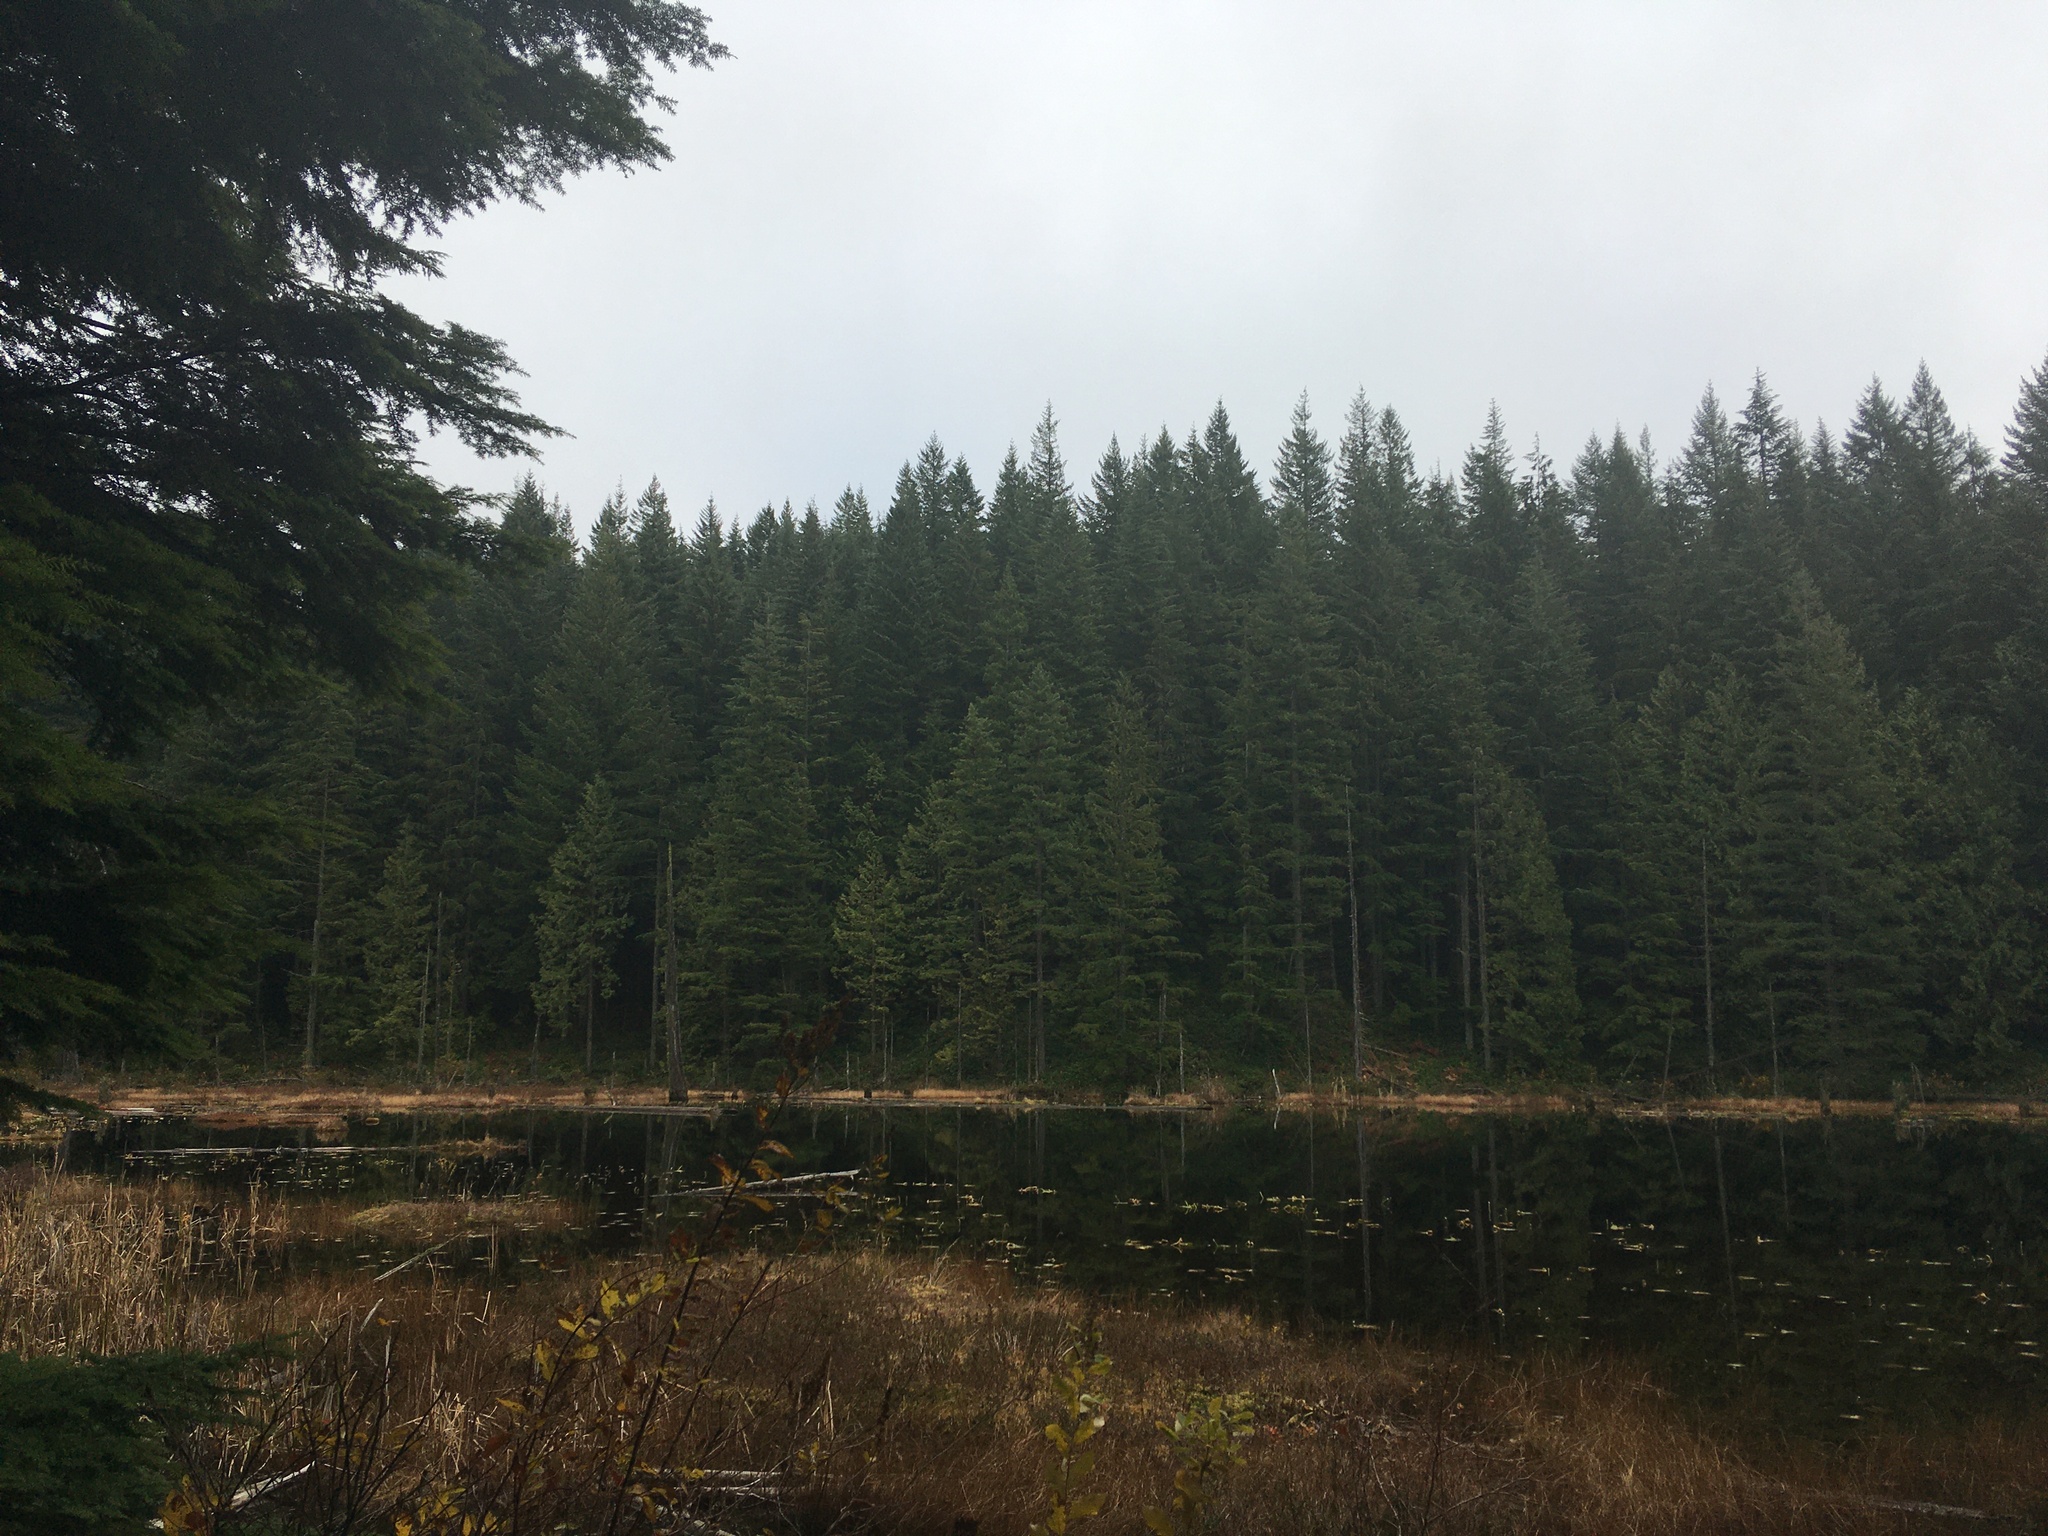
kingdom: Plantae
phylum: Tracheophyta
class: Pinopsida
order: Pinales
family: Pinaceae
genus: Tsuga
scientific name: Tsuga heterophylla
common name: Western hemlock
